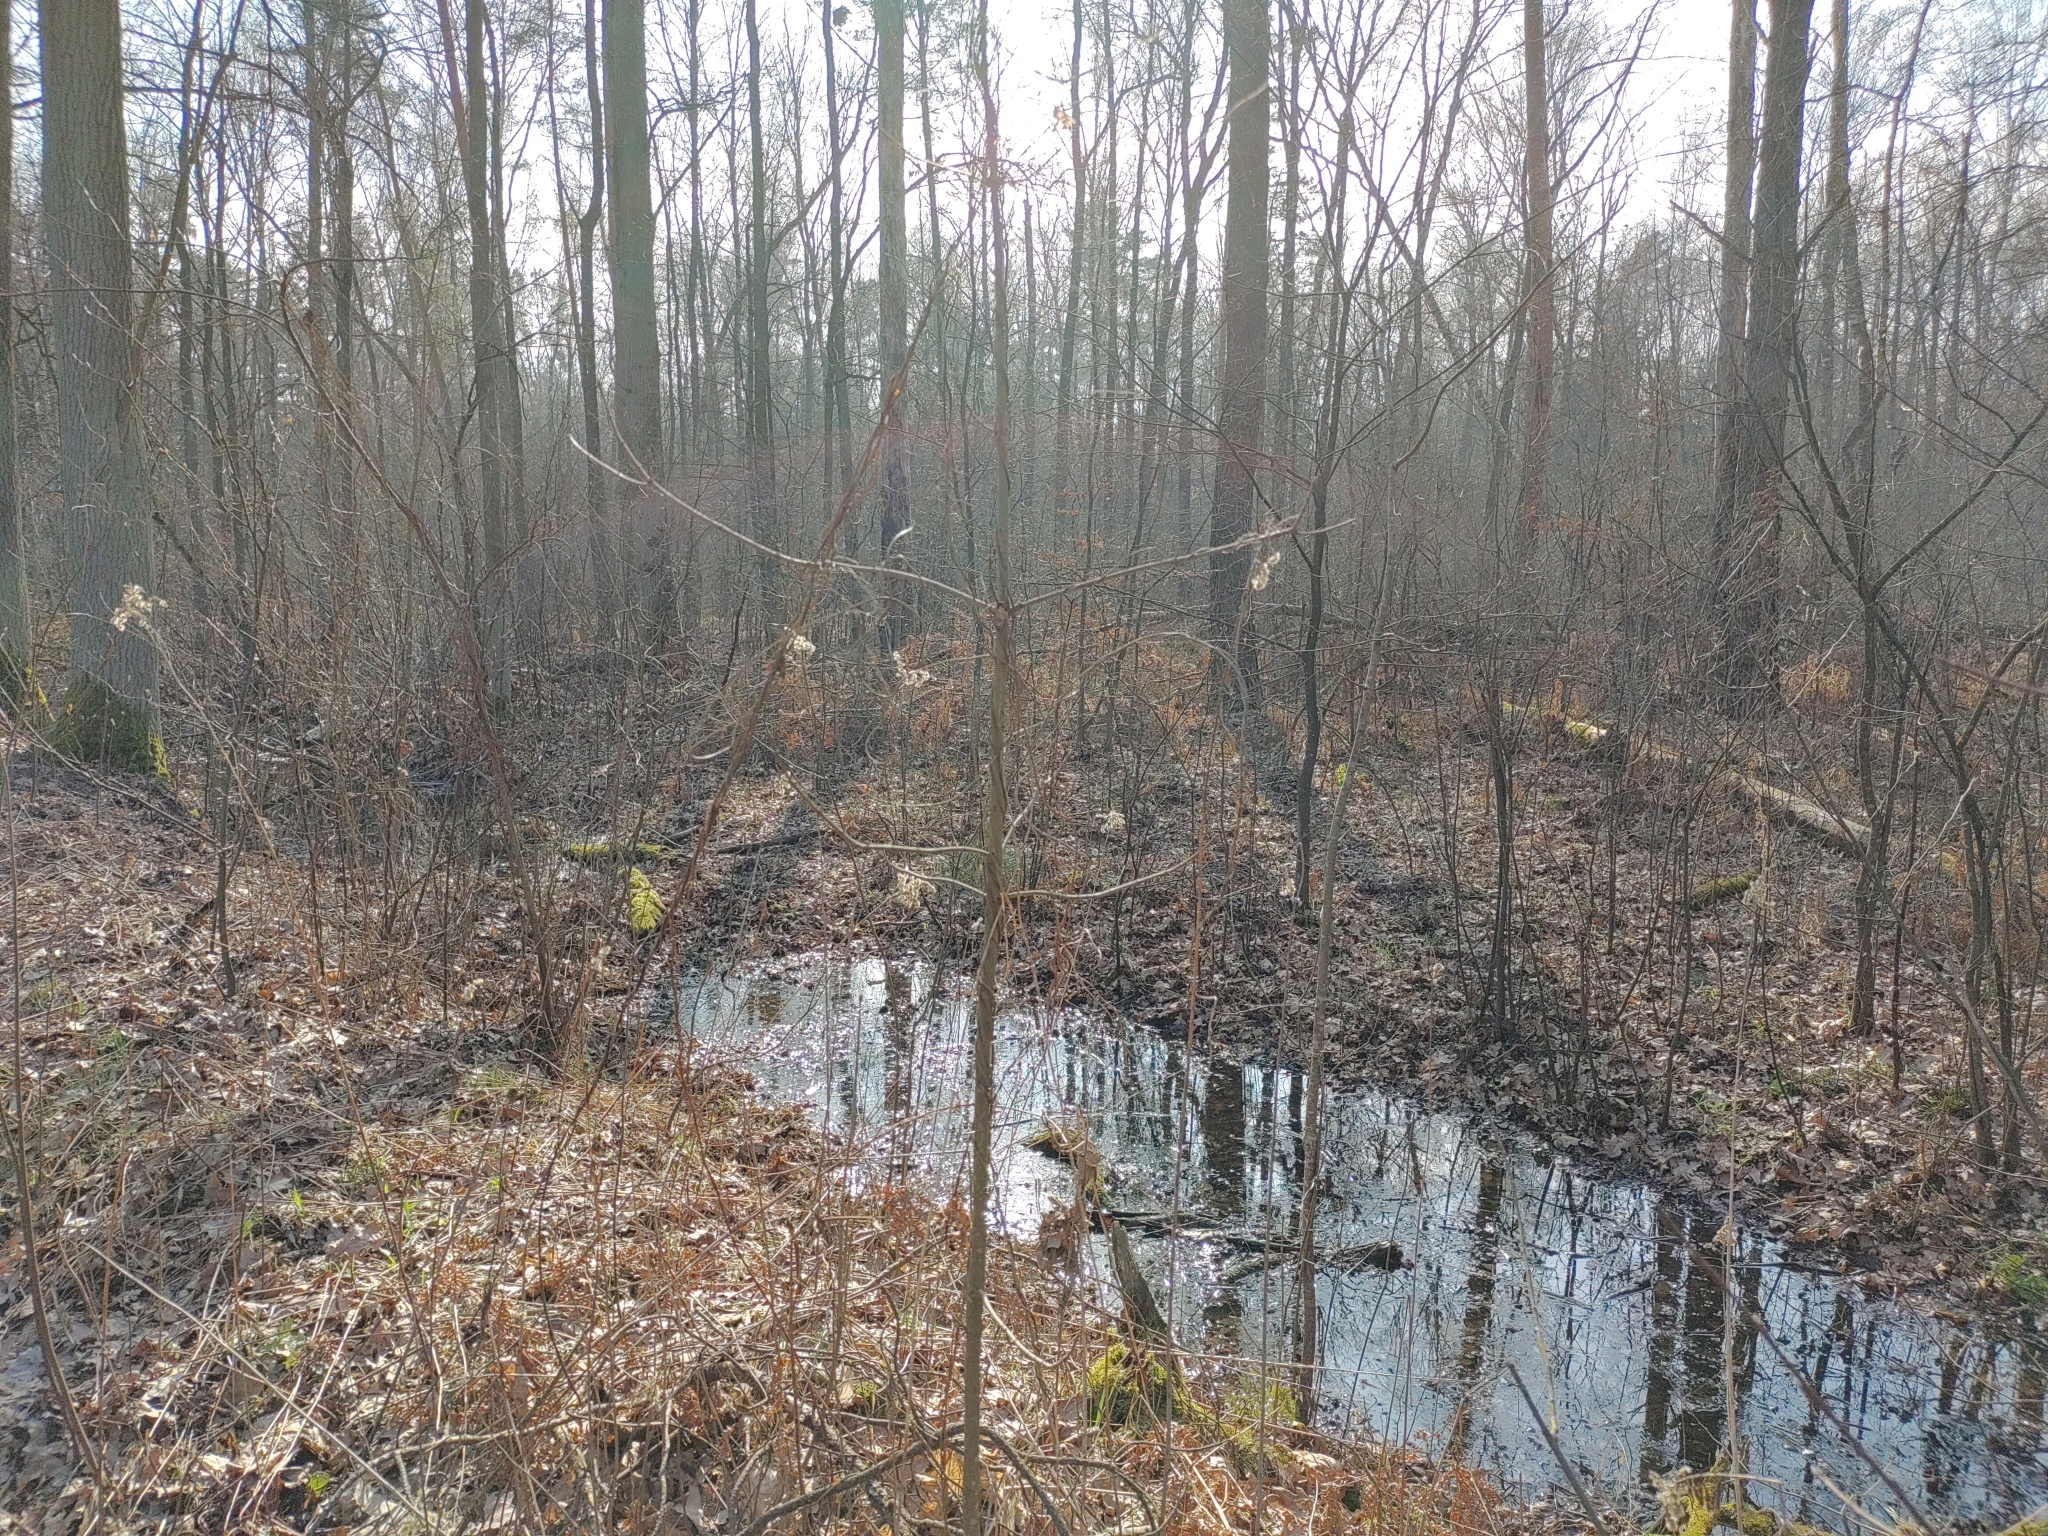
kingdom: Animalia
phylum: Chordata
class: Aves
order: Piciformes
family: Picidae
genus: Dendrocopos
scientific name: Dendrocopos major
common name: Great spotted woodpecker
